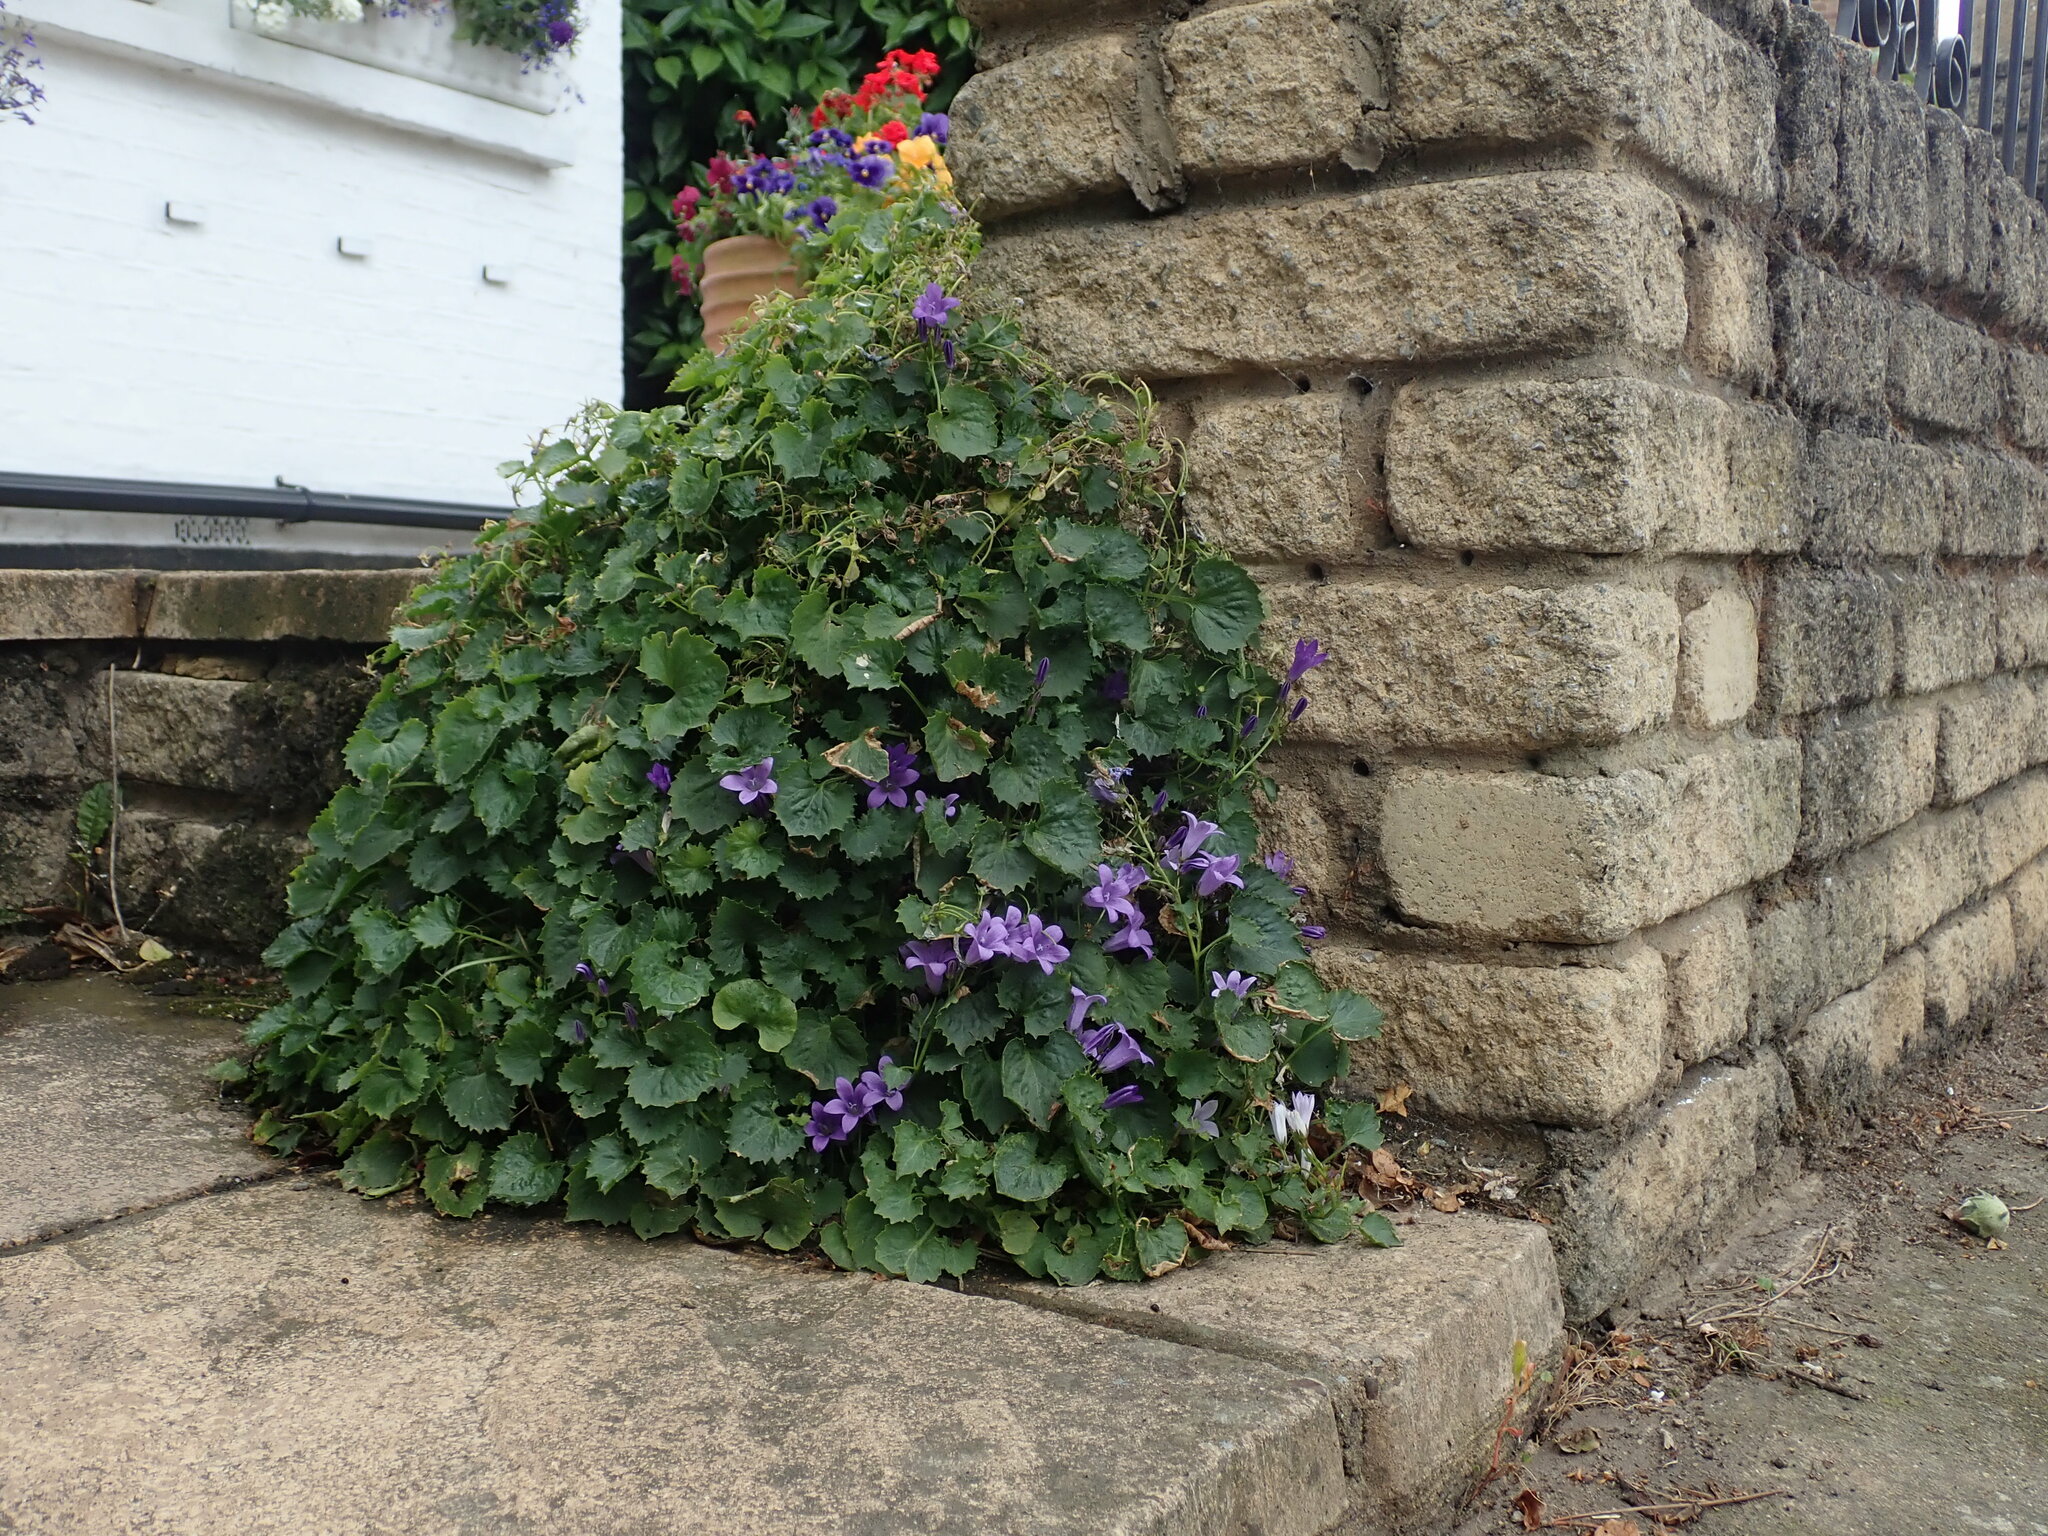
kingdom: Plantae
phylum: Tracheophyta
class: Magnoliopsida
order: Asterales
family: Campanulaceae
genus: Campanula
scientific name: Campanula poscharskyana
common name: Trailing bellflower
